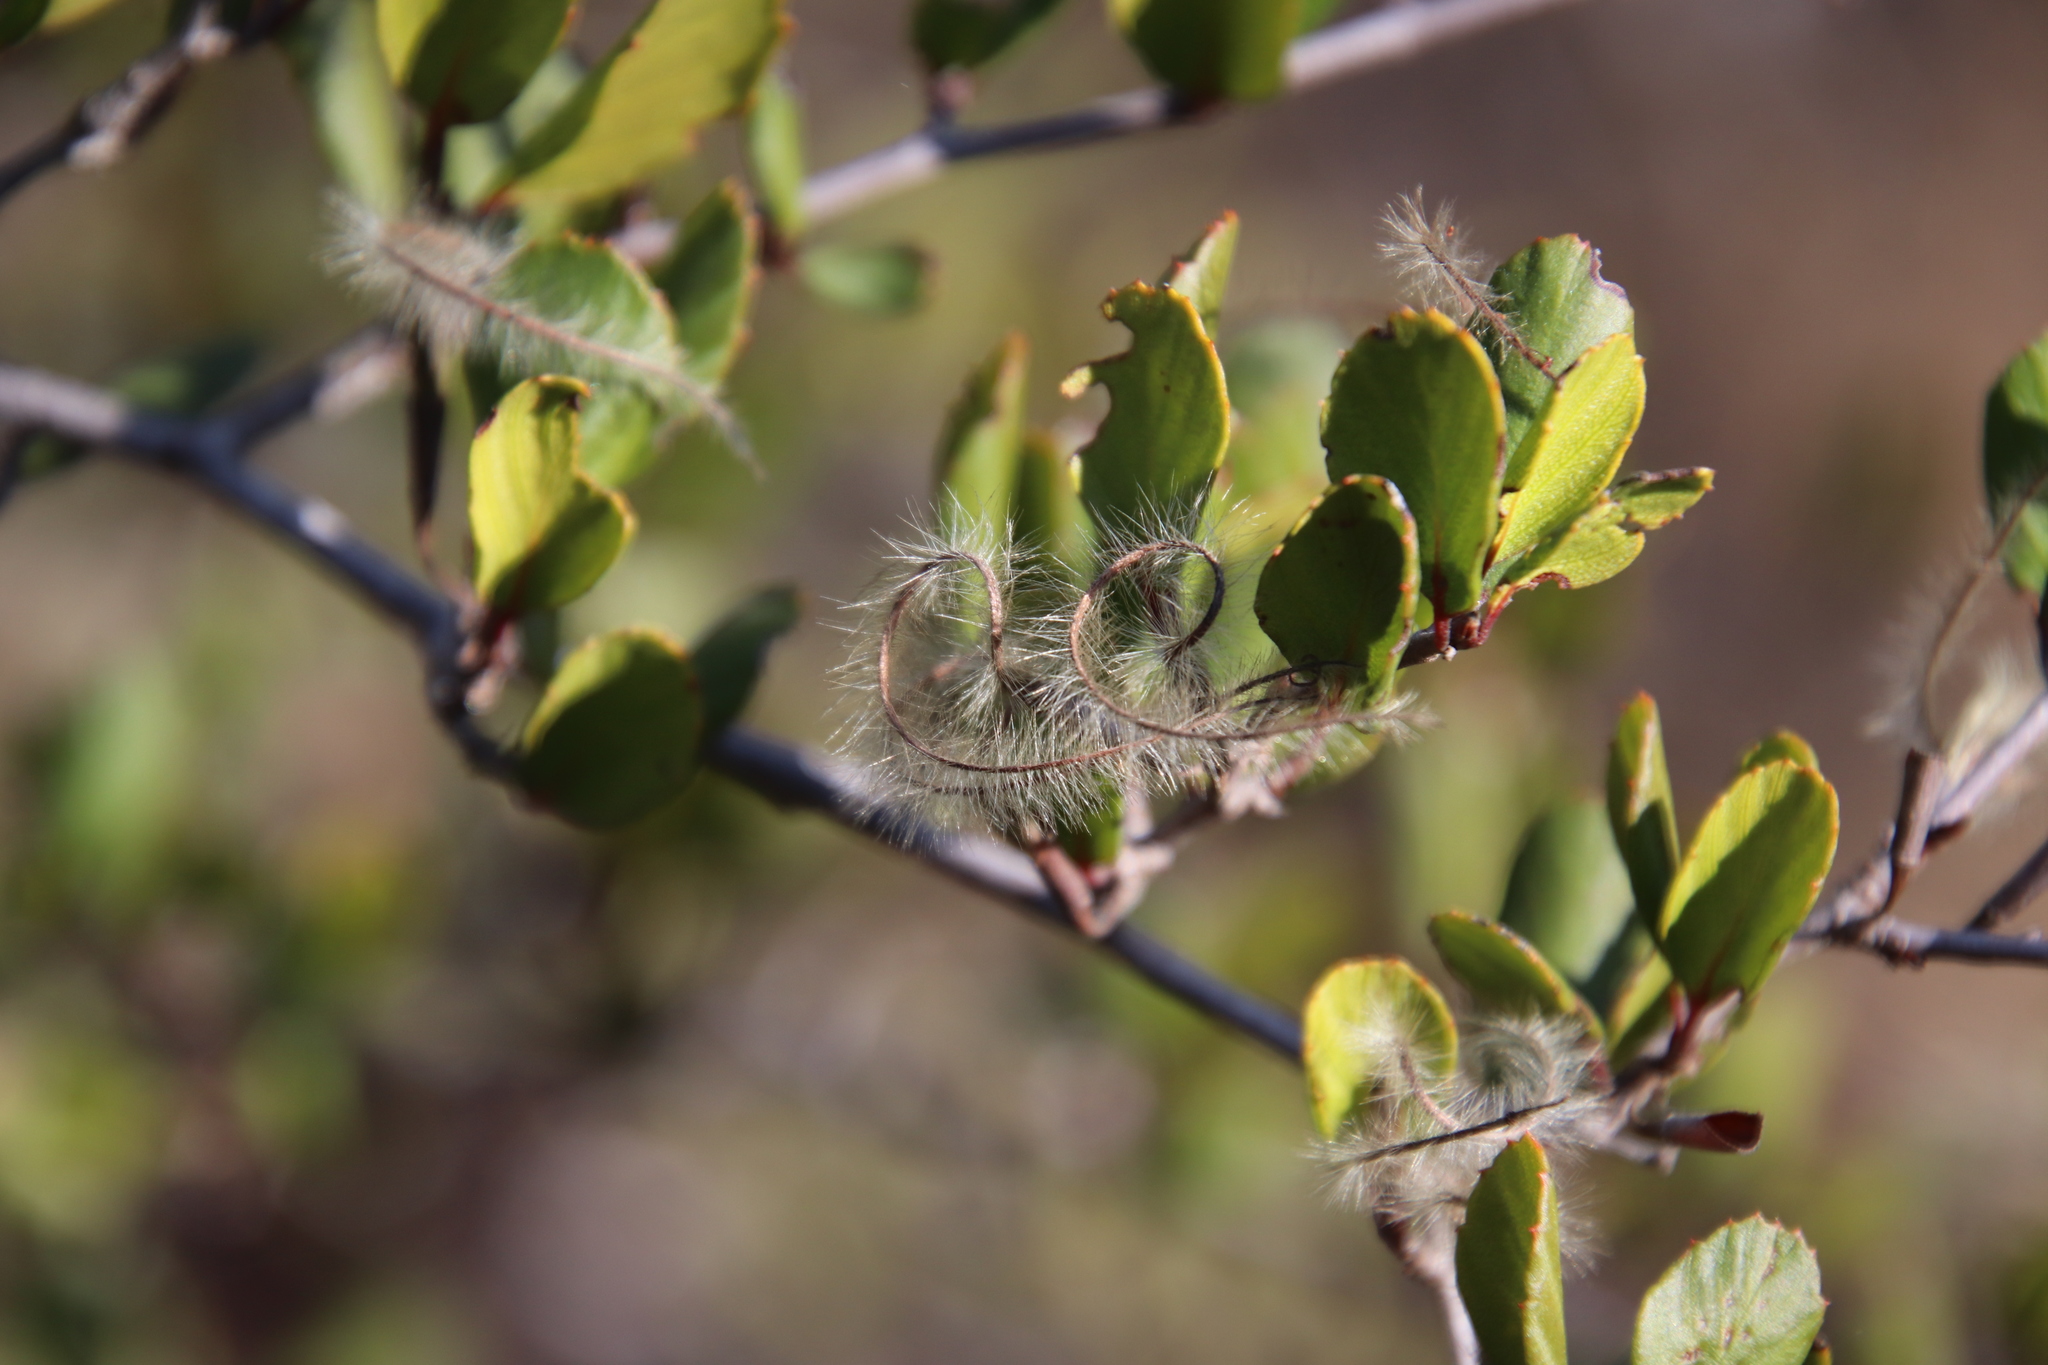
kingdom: Plantae
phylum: Tracheophyta
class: Magnoliopsida
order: Rosales
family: Rosaceae
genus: Cercocarpus
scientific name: Cercocarpus montanus
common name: Alder-leaf cercocarpus
